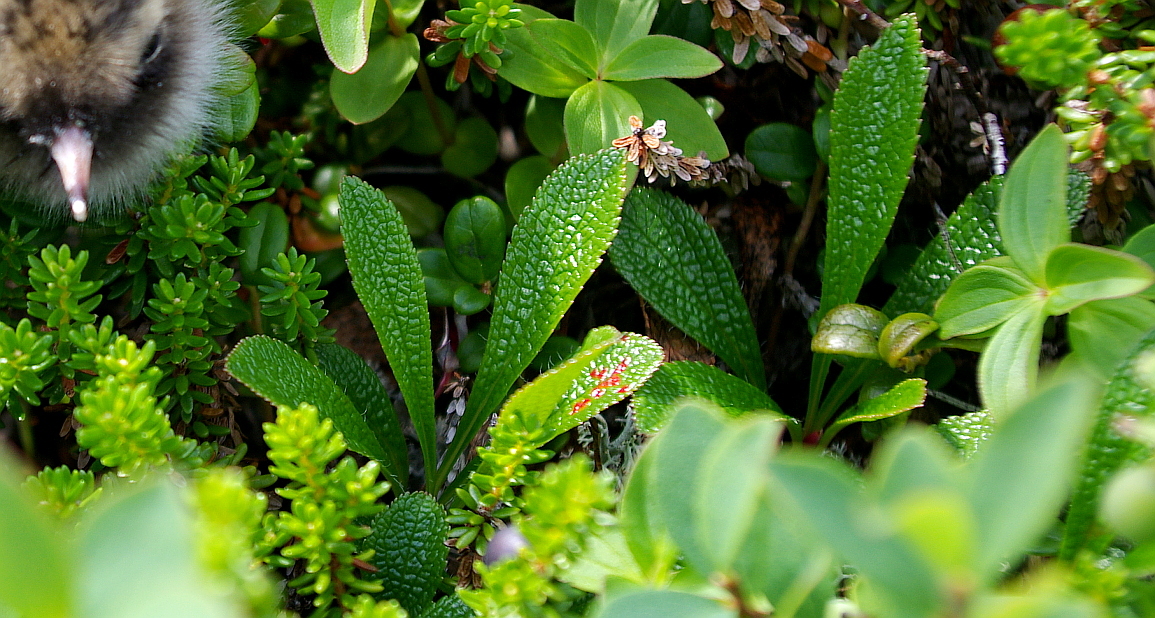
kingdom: Plantae
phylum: Tracheophyta
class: Magnoliopsida
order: Ericales
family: Ericaceae
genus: Arctostaphylos
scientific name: Arctostaphylos alpinus
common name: Alpine bearberry
